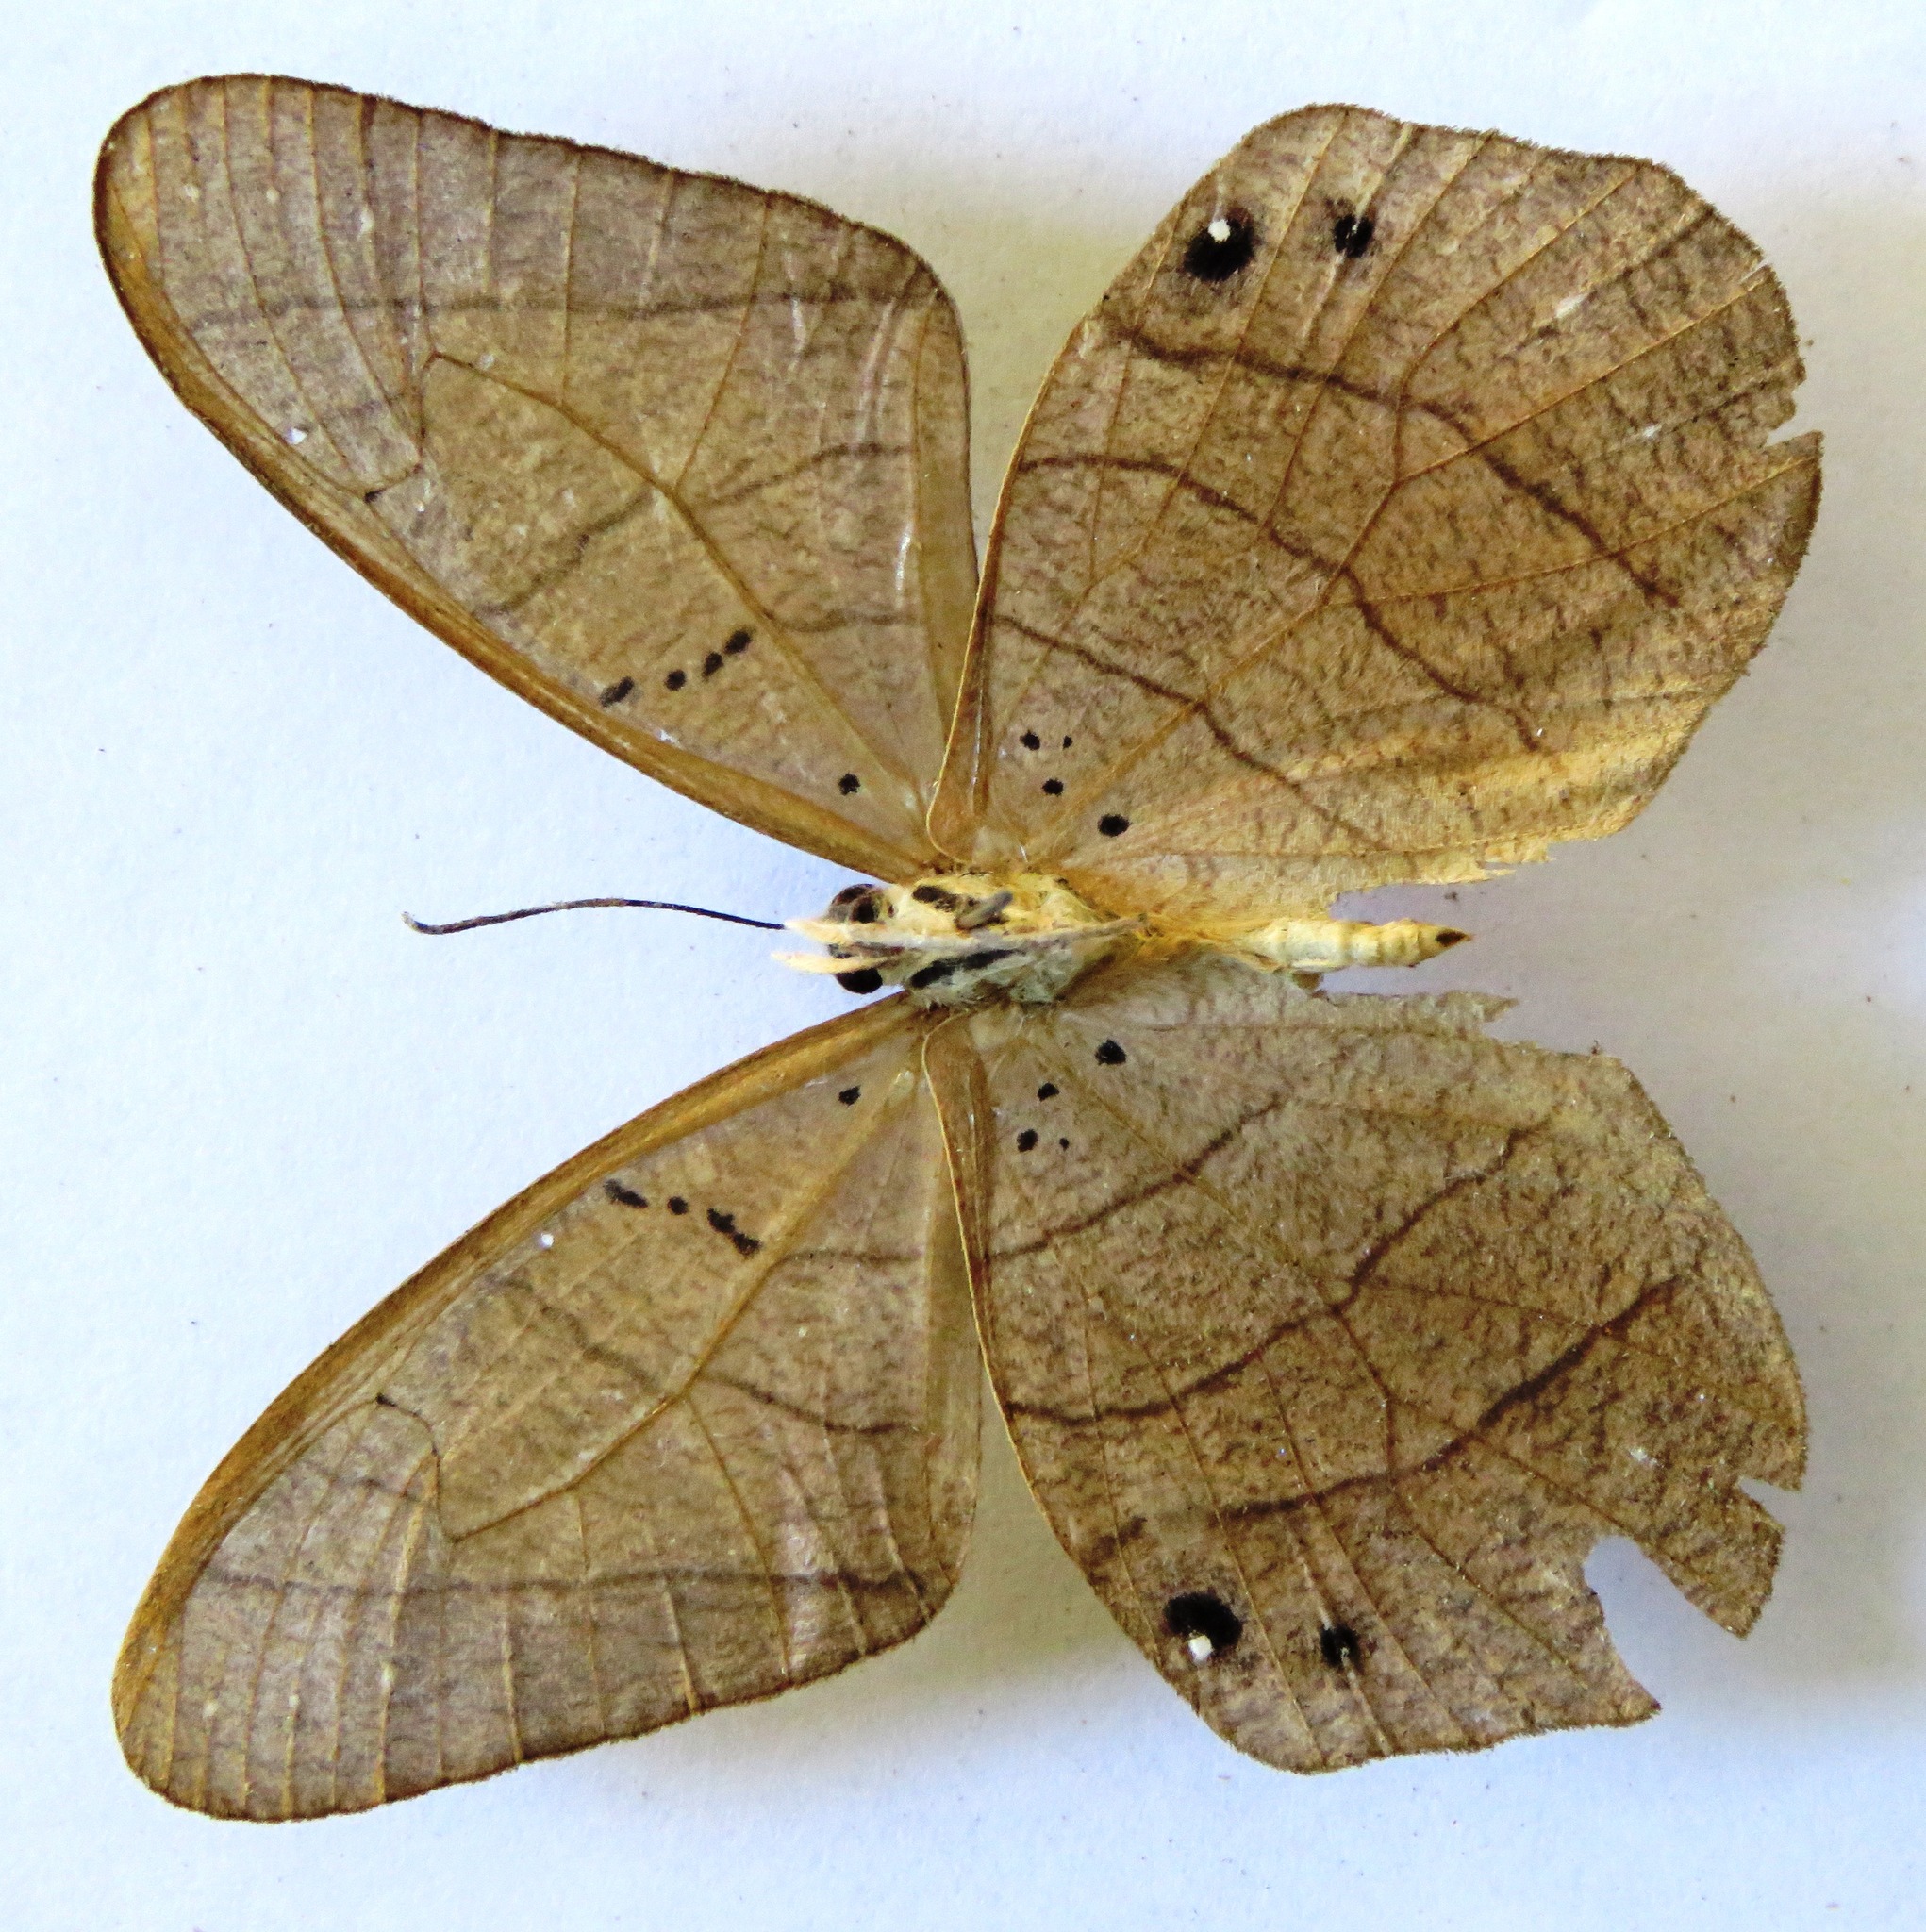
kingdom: Animalia
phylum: Arthropoda
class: Insecta
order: Lepidoptera
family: Nymphalidae
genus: Pierella
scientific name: Pierella luna
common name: Moon satyr
